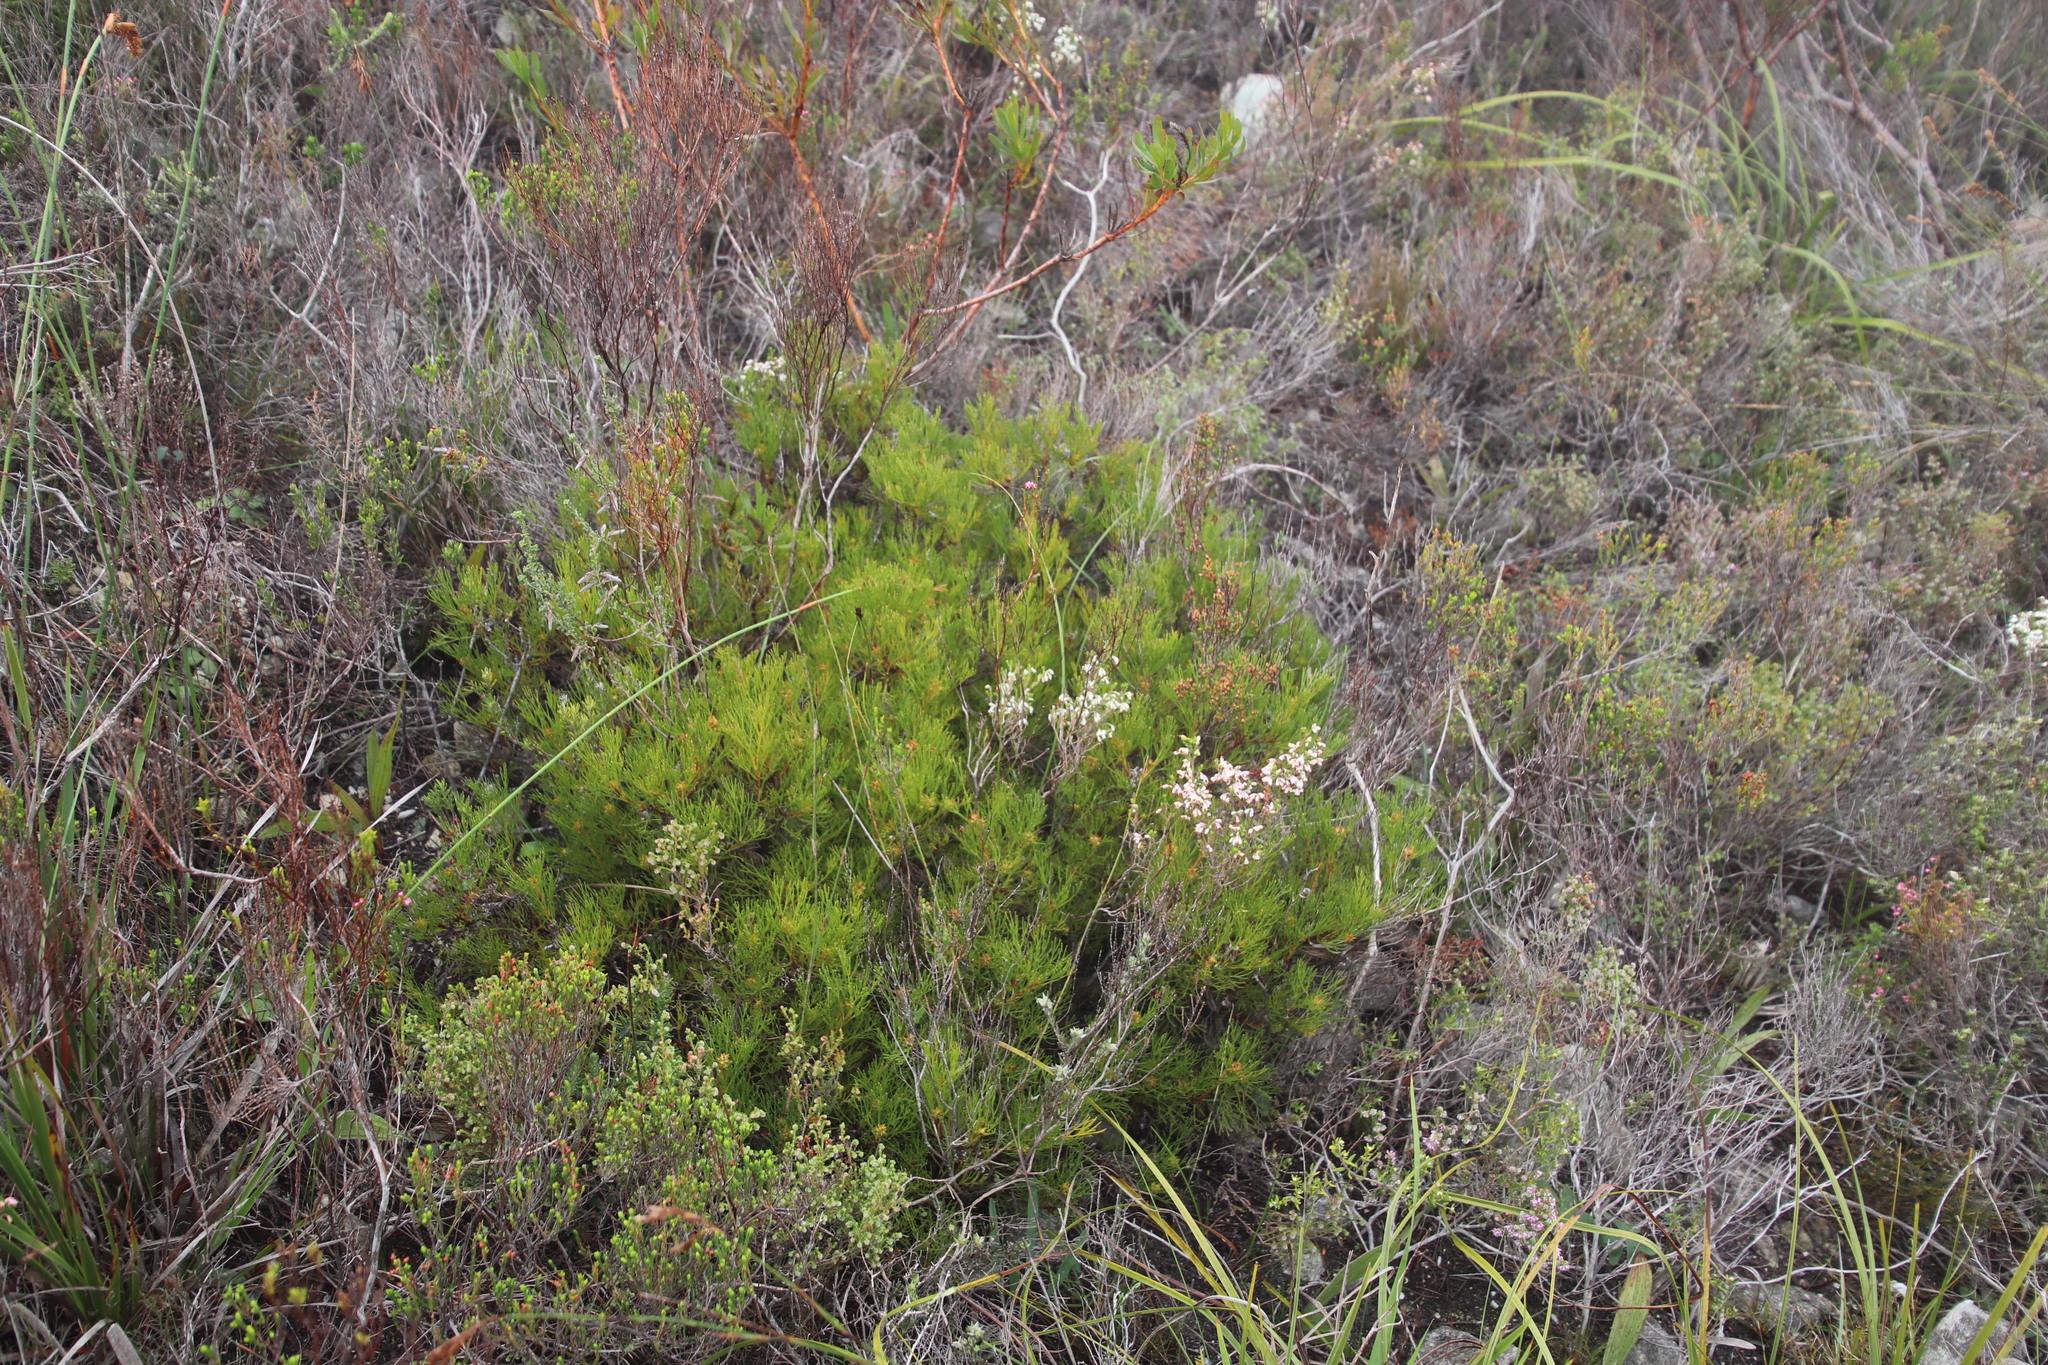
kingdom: Plantae
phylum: Tracheophyta
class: Magnoliopsida
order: Proteales
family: Proteaceae
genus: Serruria
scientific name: Serruria rubricaulis
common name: Red-stem spiderhead
